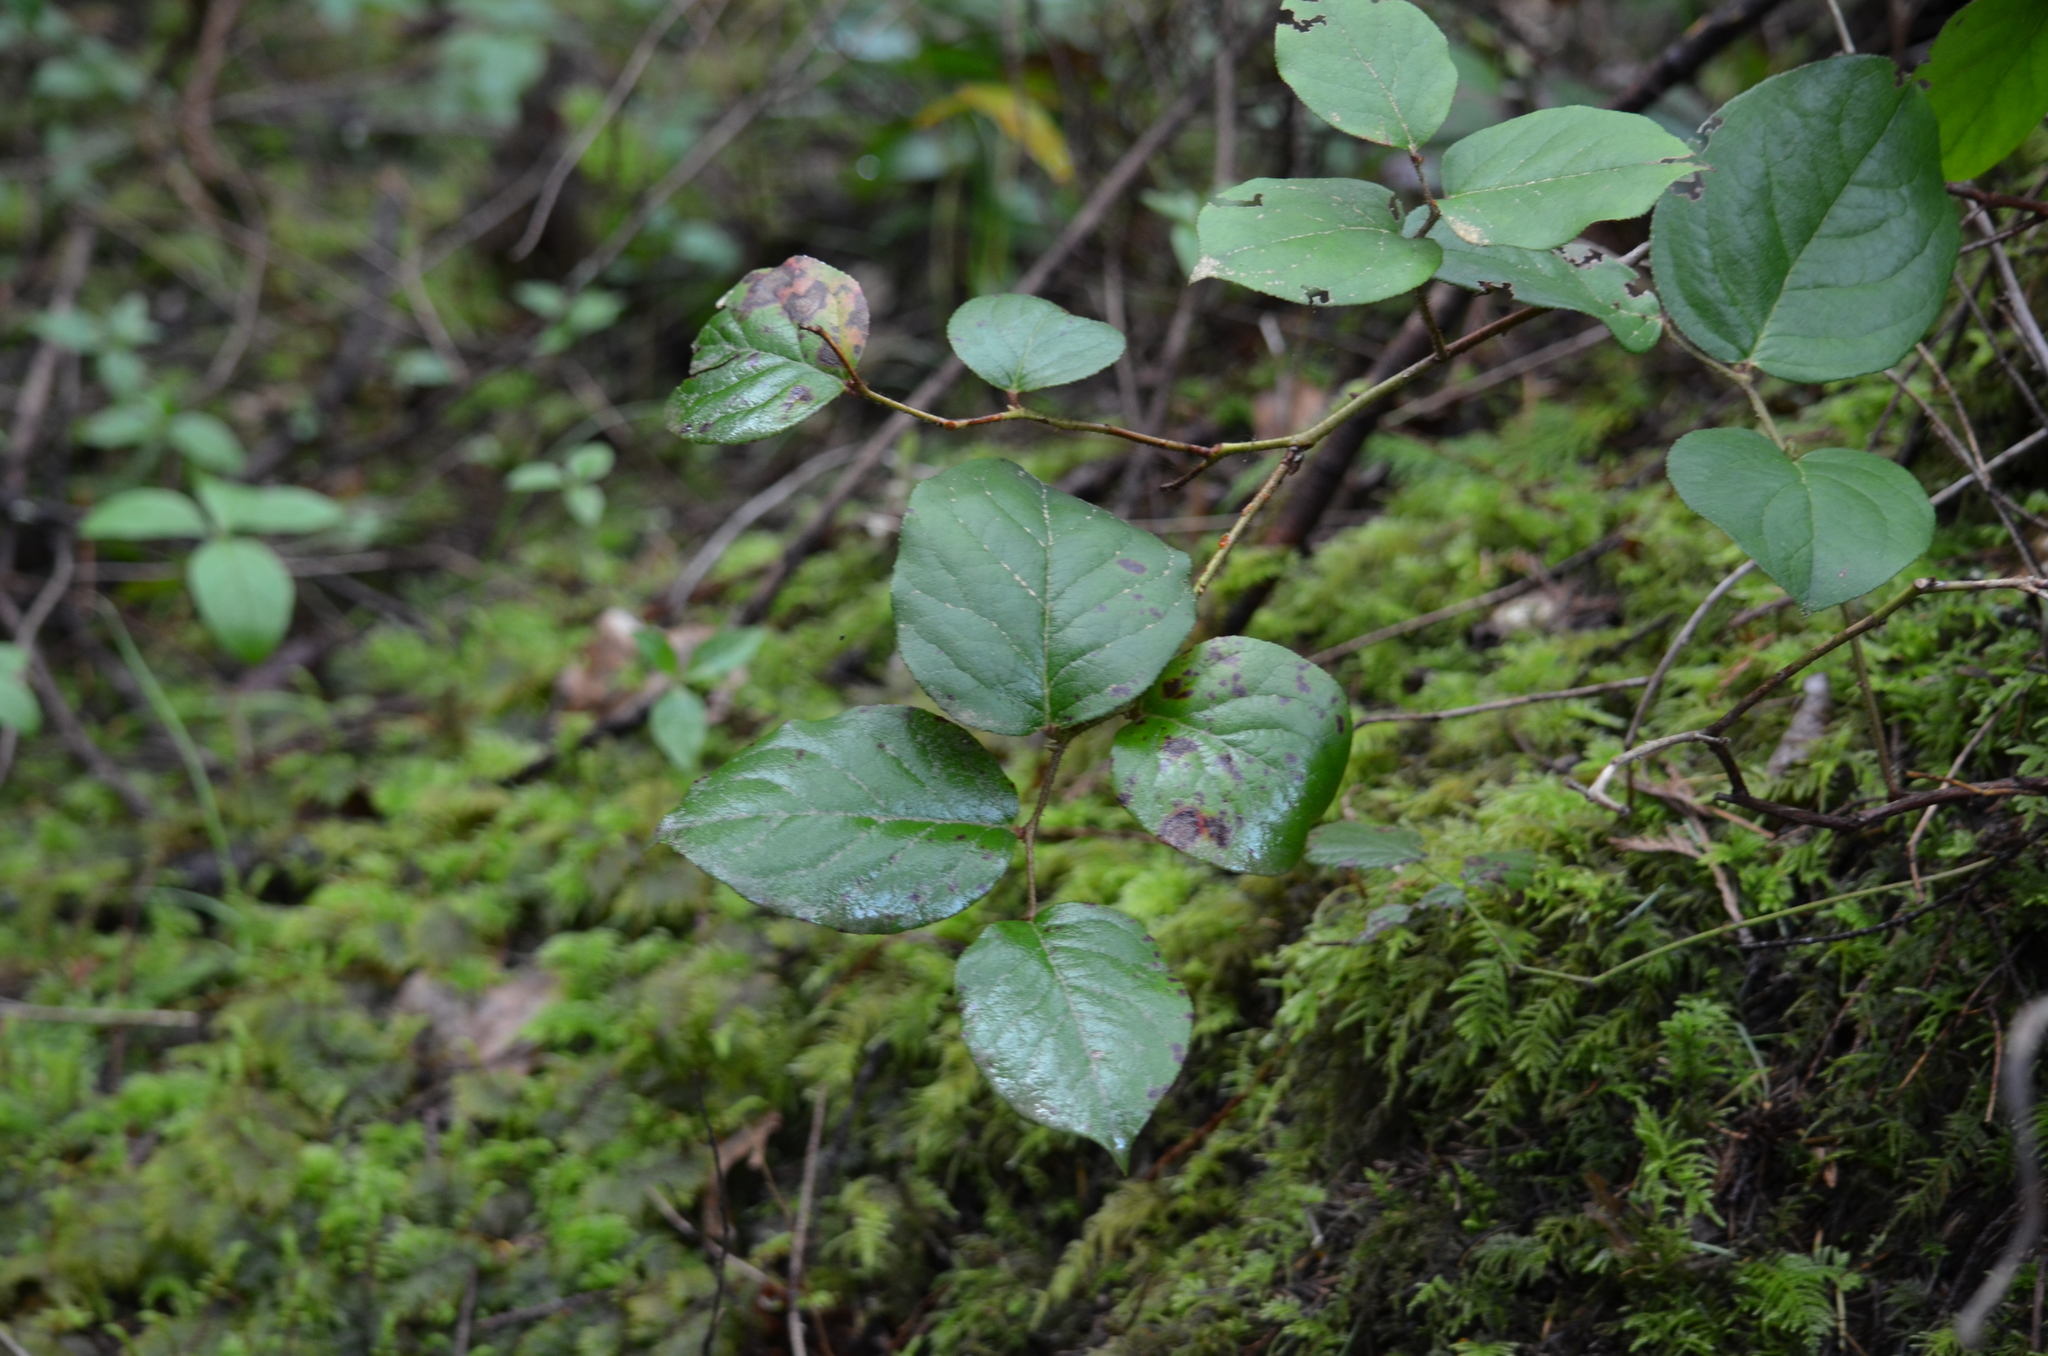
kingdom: Plantae
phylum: Tracheophyta
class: Magnoliopsida
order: Ericales
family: Ericaceae
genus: Gaultheria
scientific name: Gaultheria shallon
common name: Shallon
